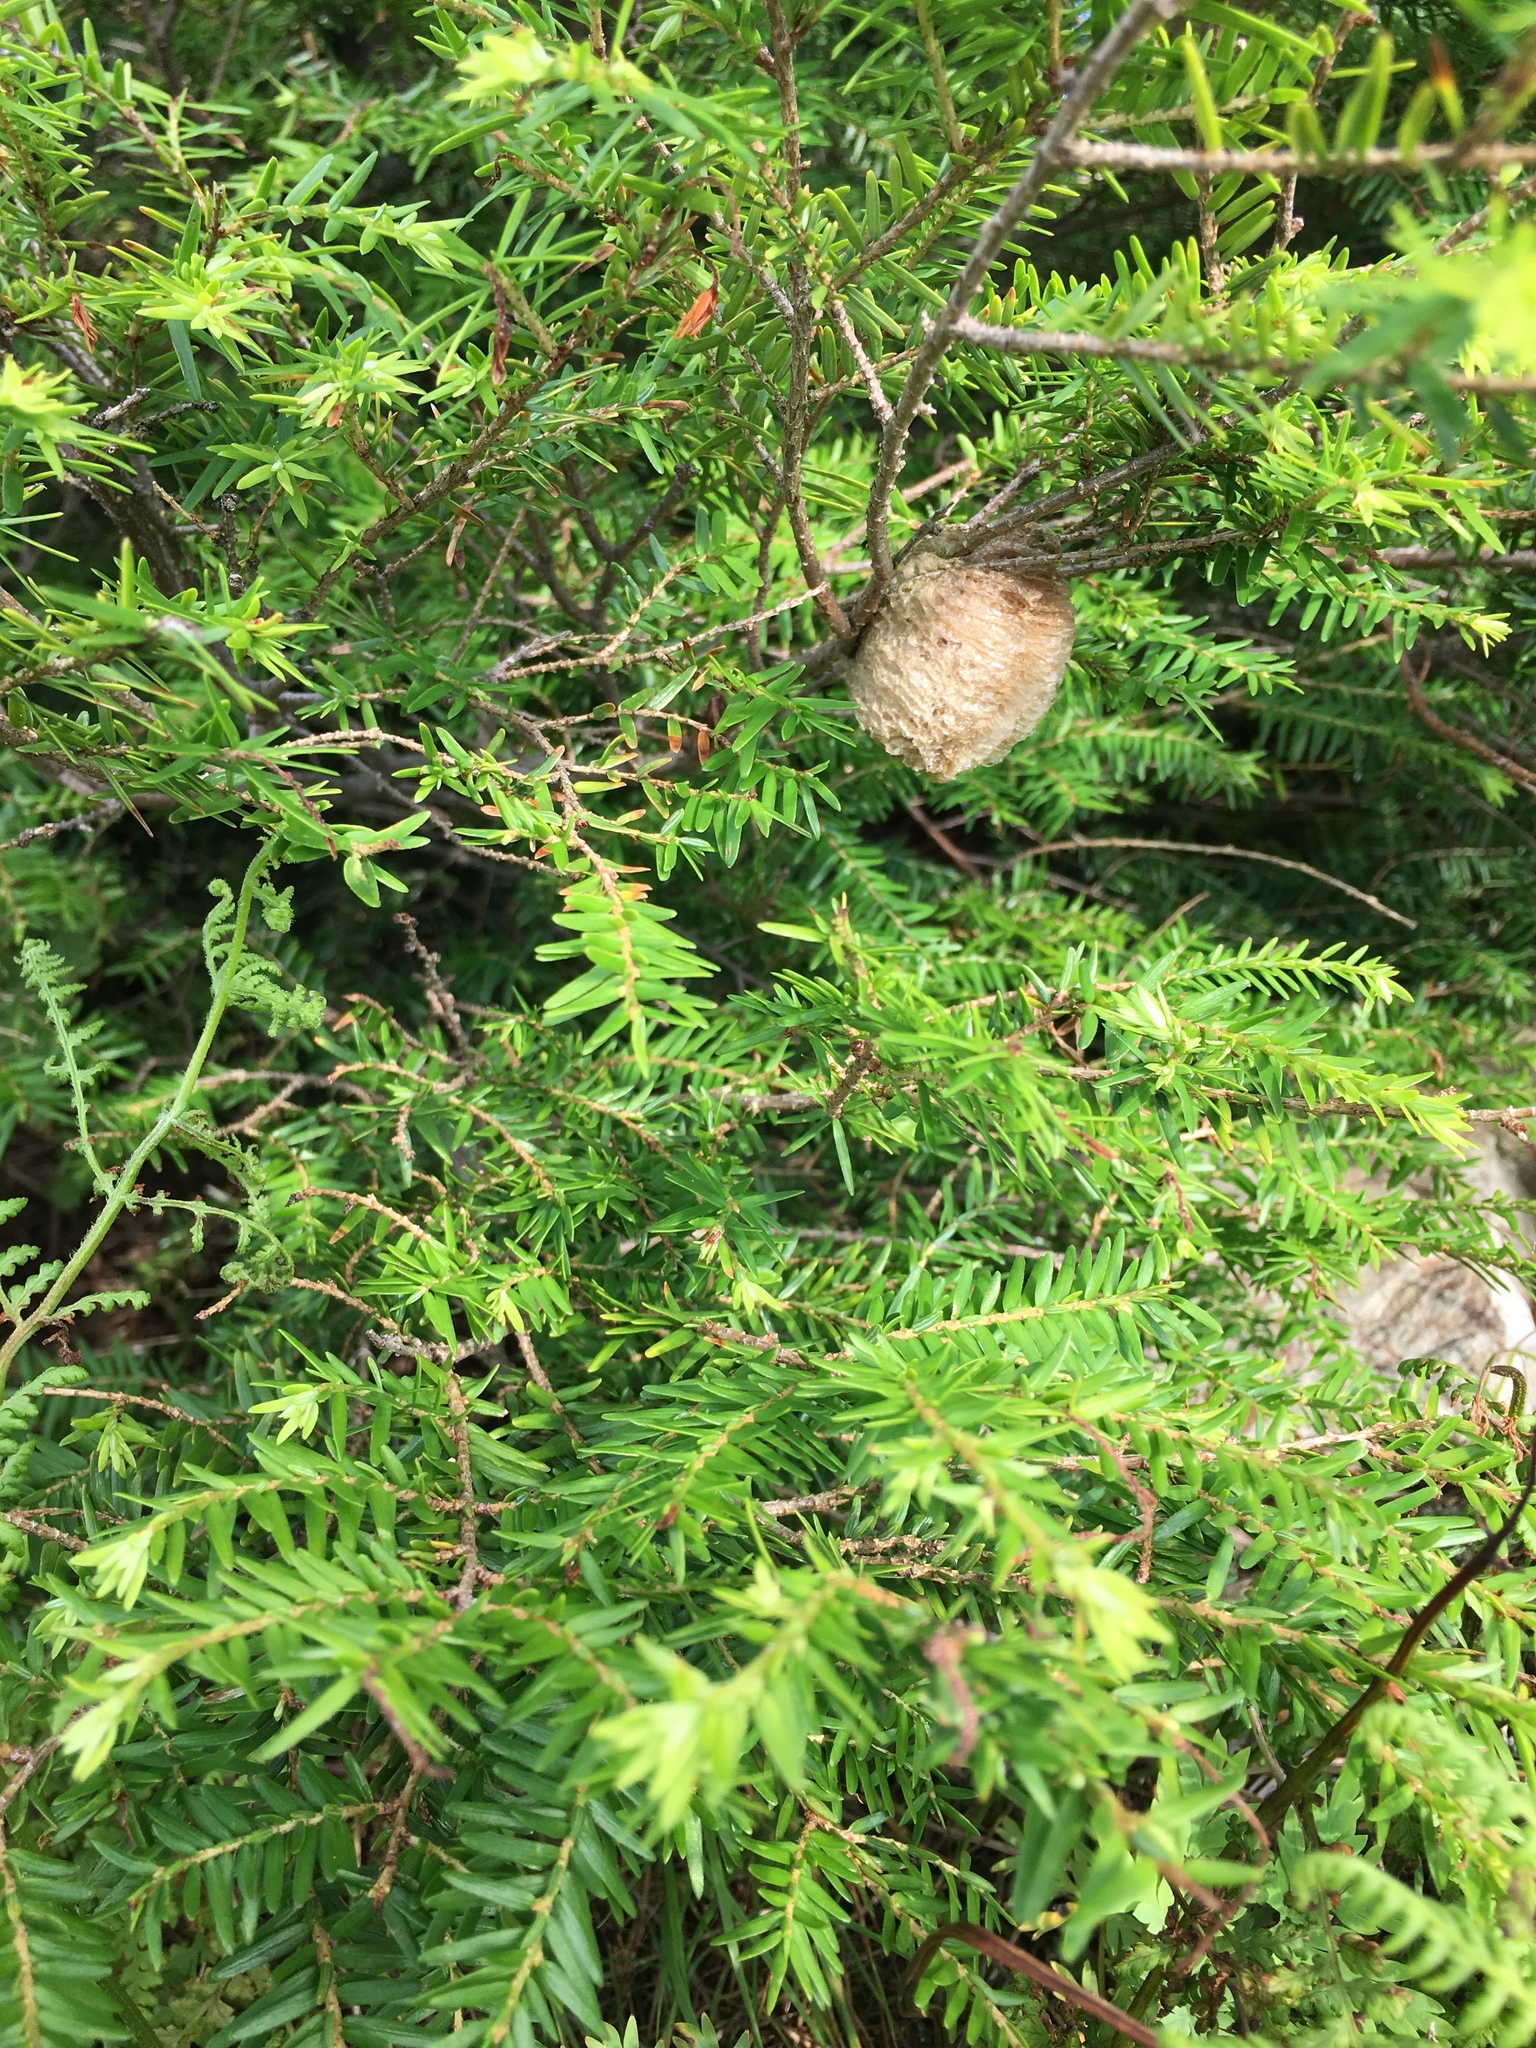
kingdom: Animalia
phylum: Arthropoda
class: Insecta
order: Mantodea
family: Mantidae
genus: Tenodera
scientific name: Tenodera sinensis
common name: Chinese mantis
